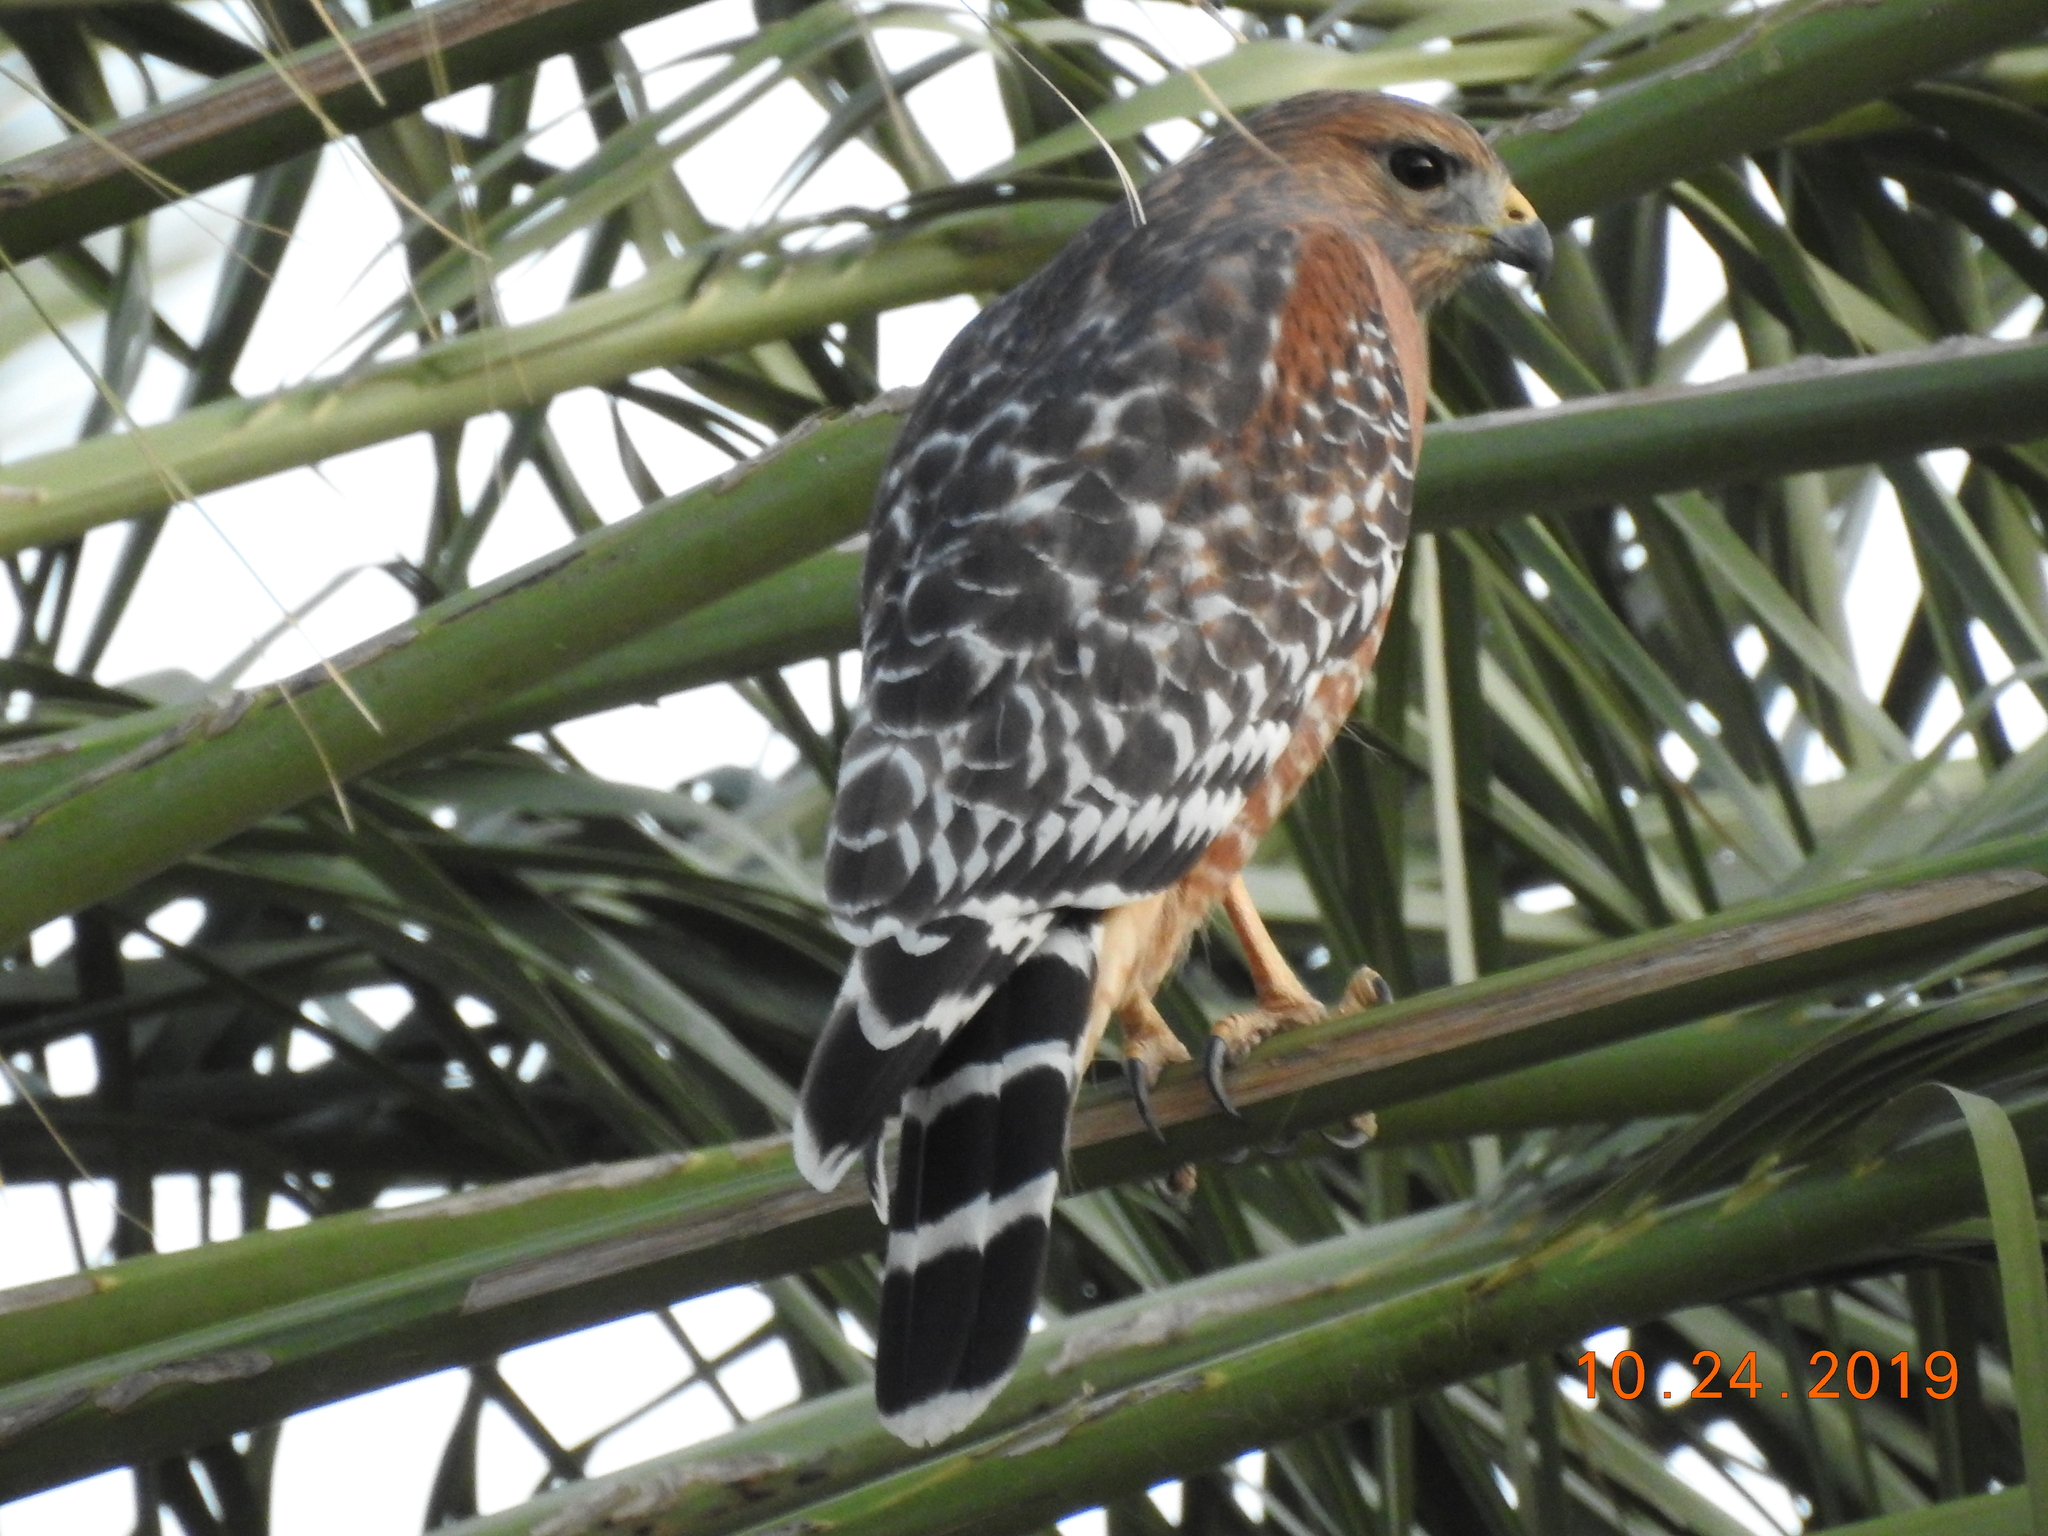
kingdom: Animalia
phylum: Chordata
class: Aves
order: Accipitriformes
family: Accipitridae
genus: Buteo
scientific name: Buteo lineatus
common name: Red-shouldered hawk
